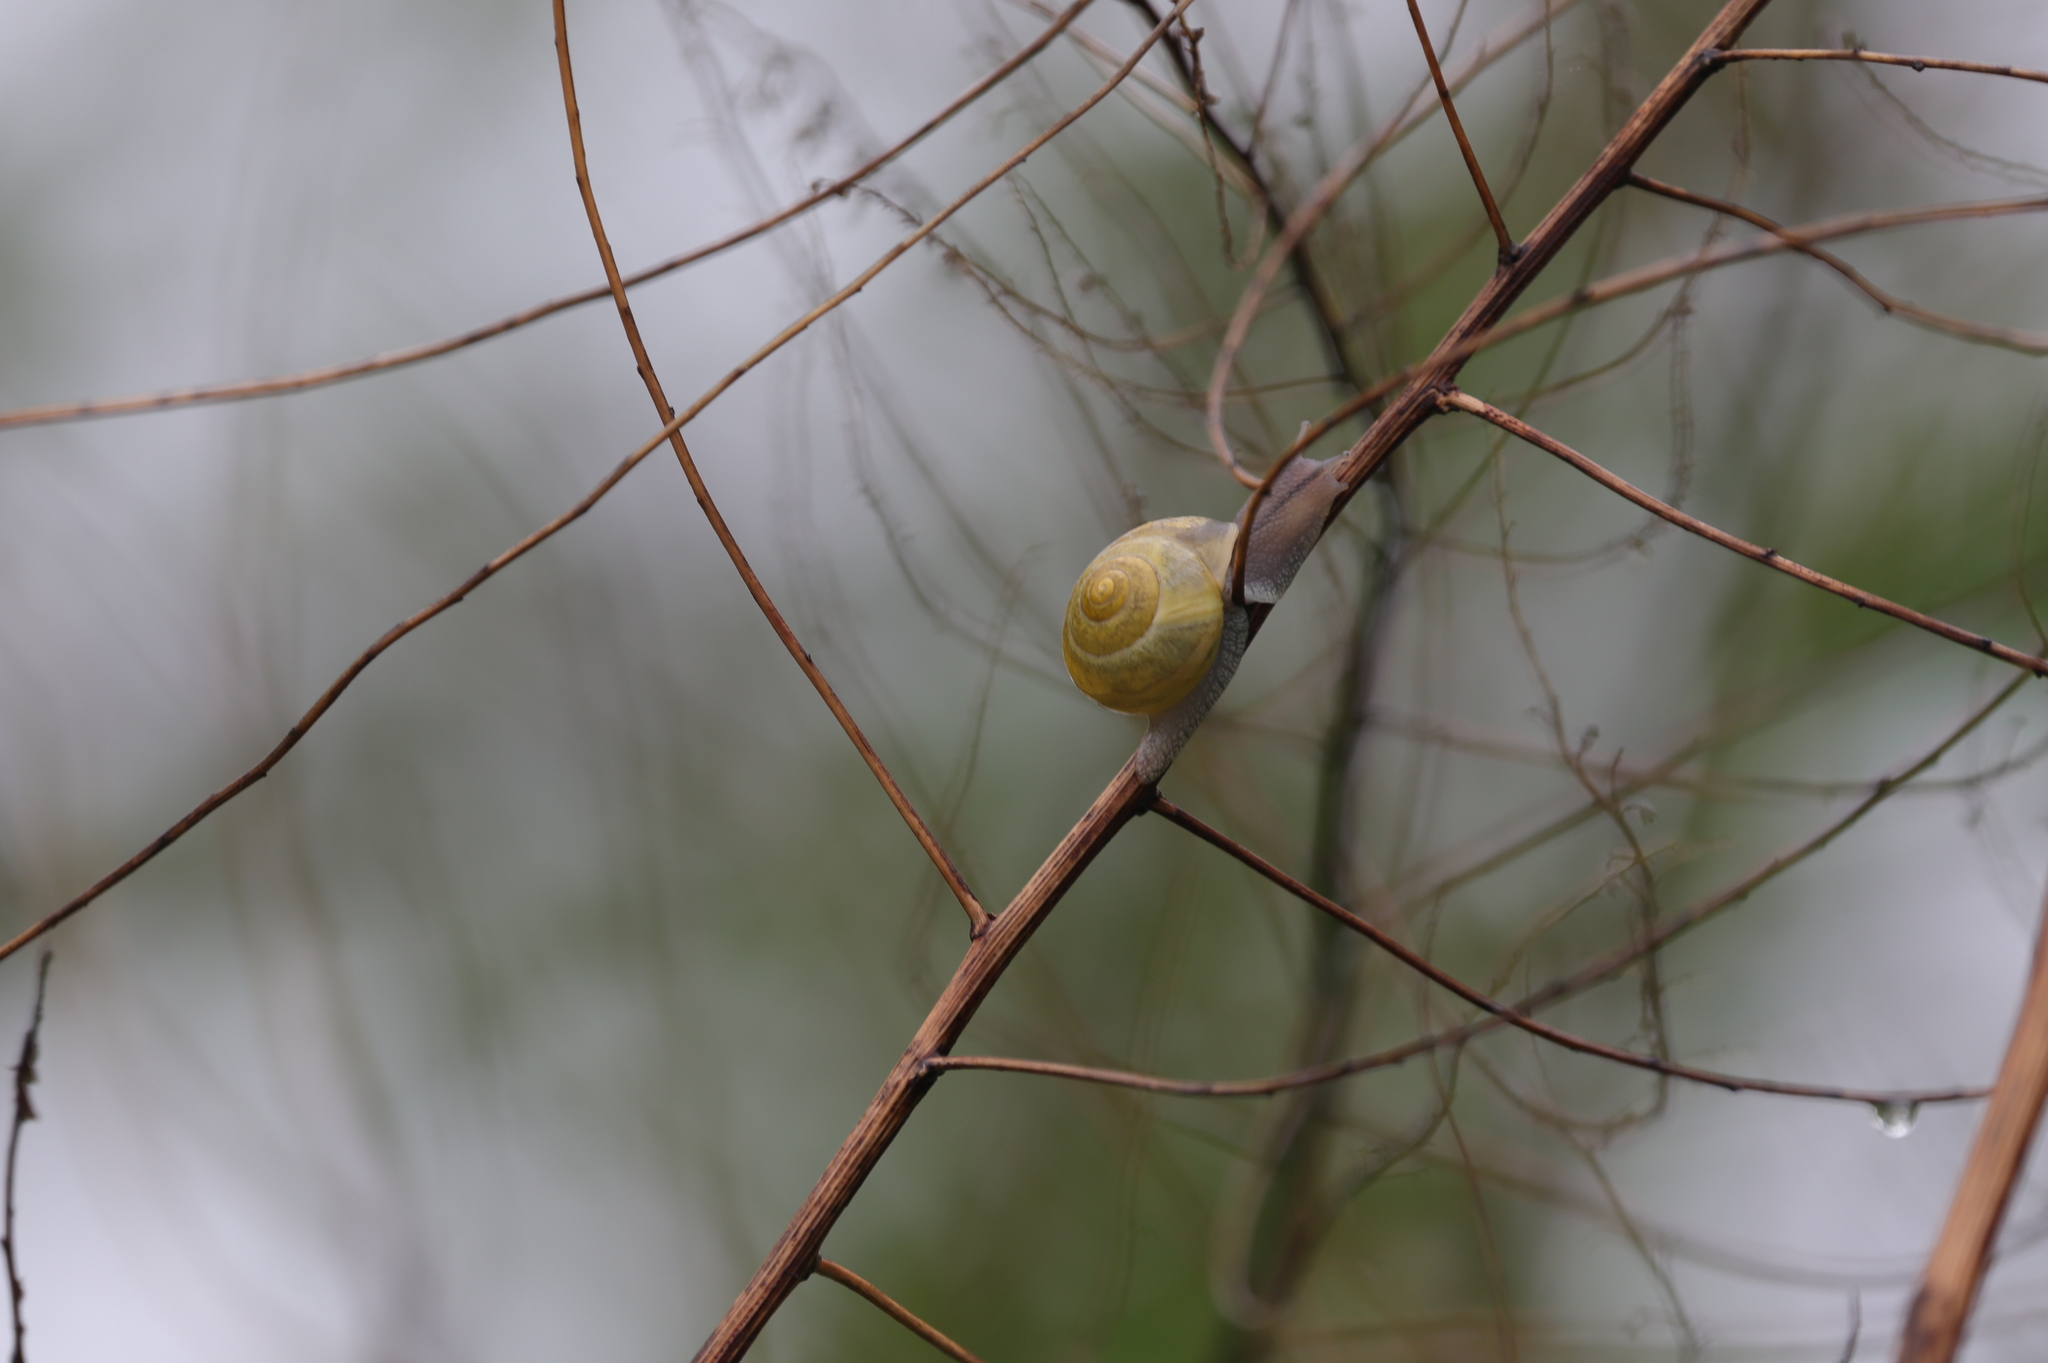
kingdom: Animalia
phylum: Mollusca
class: Gastropoda
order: Stylommatophora
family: Helicidae
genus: Cepaea
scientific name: Cepaea nemoralis
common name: Grovesnail
